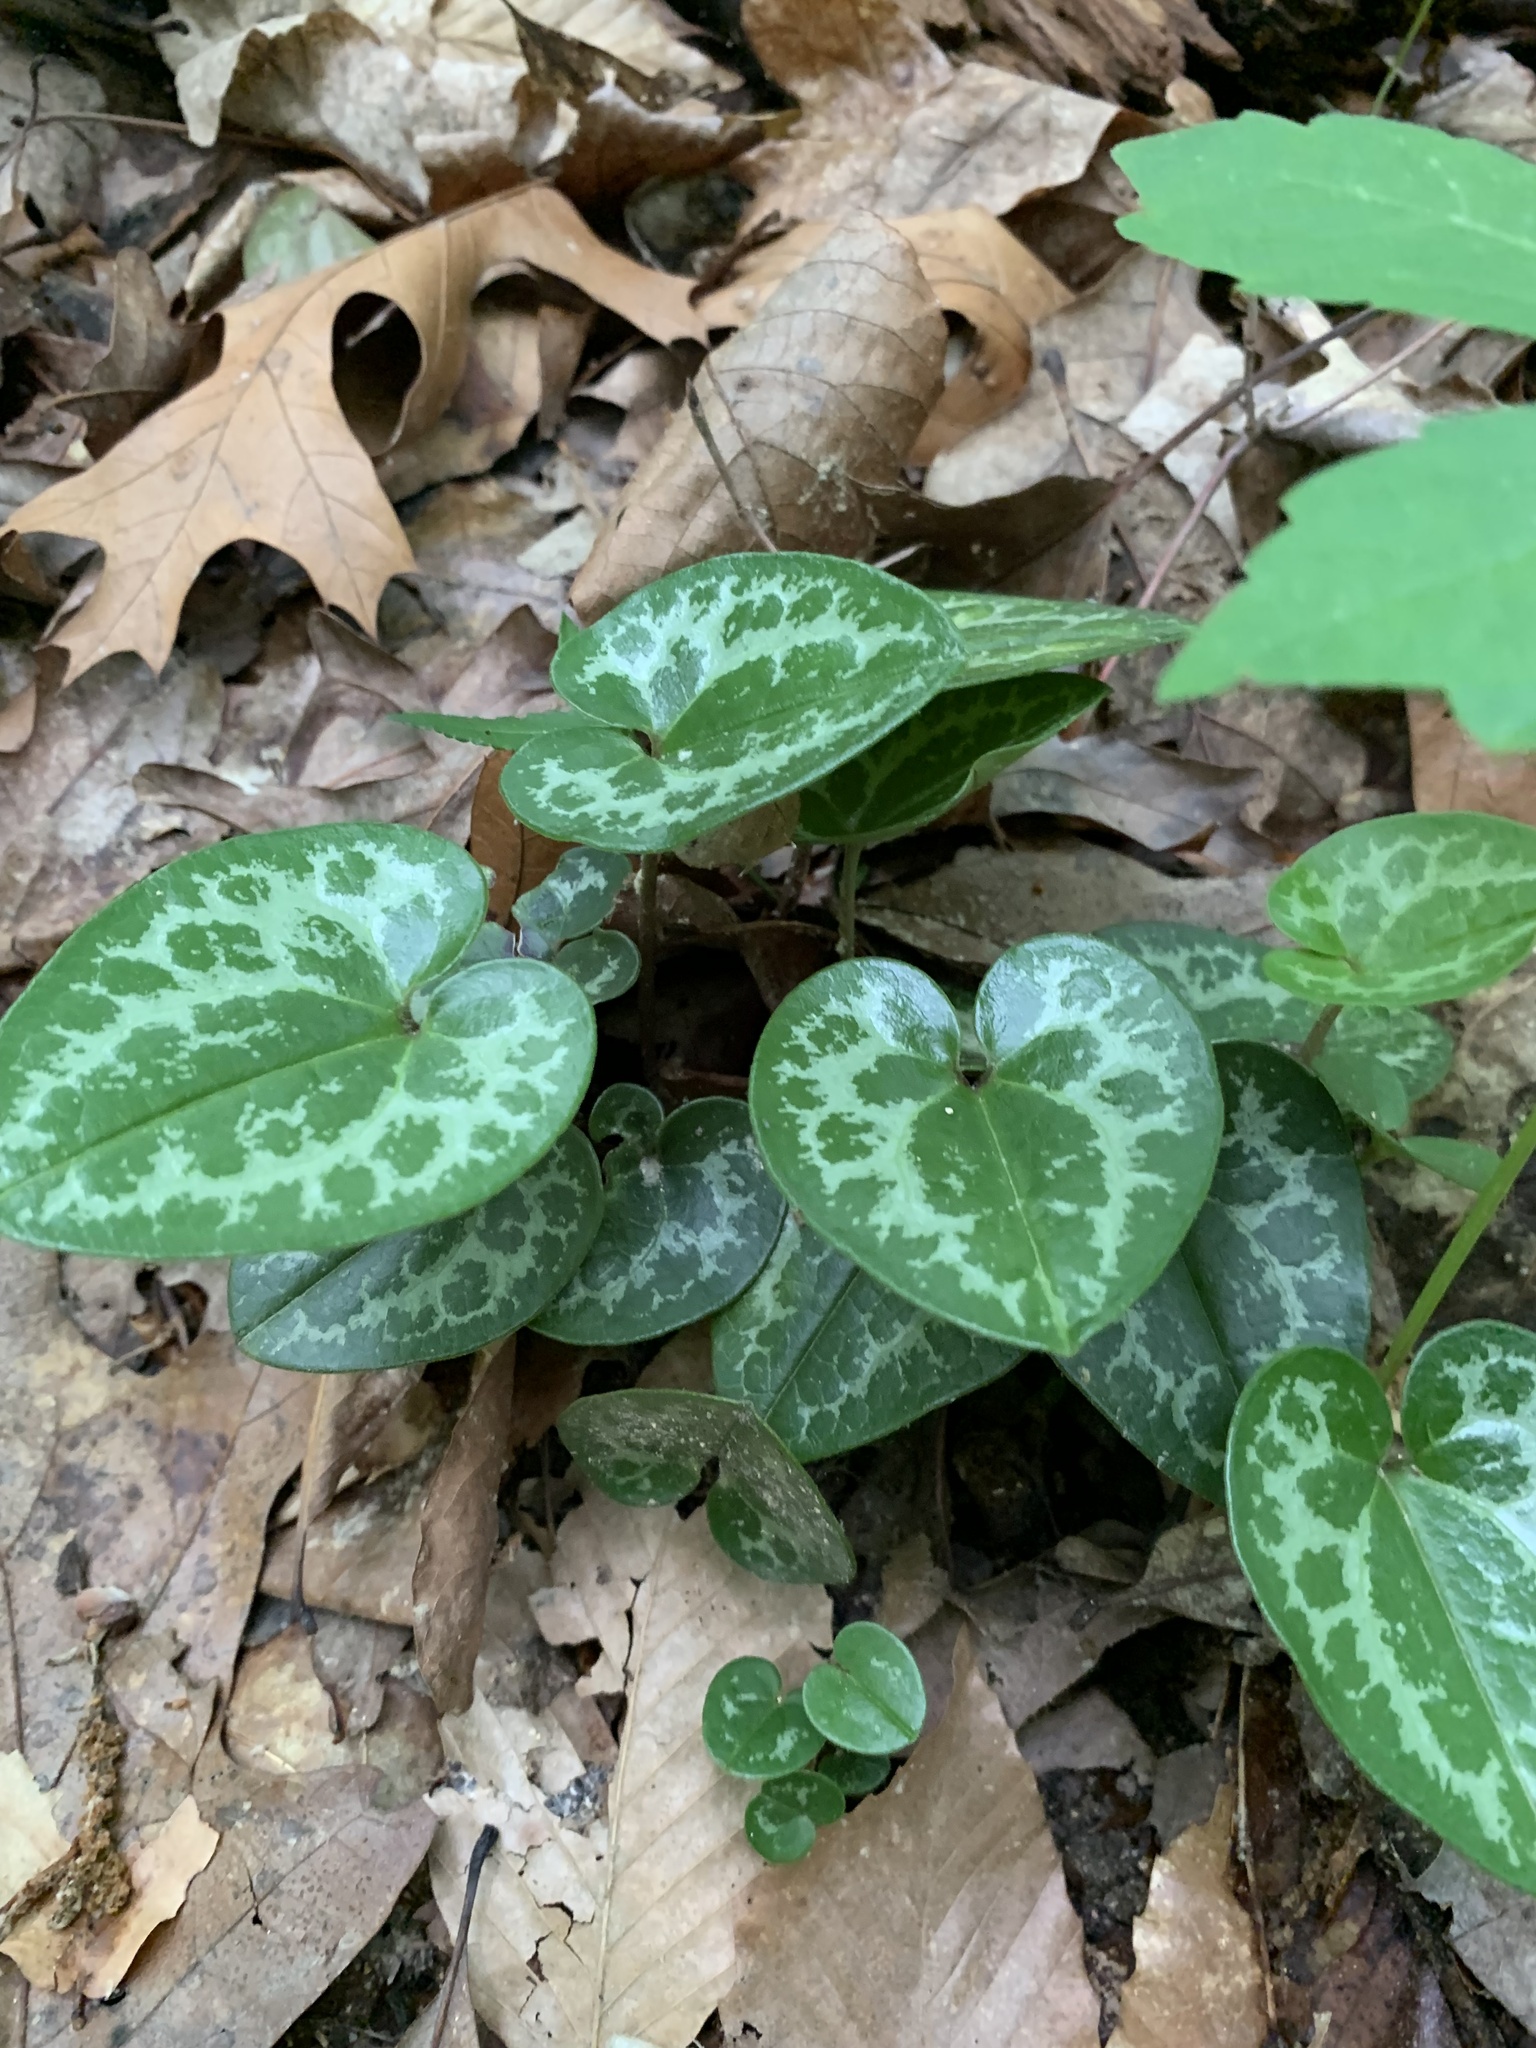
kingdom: Plantae
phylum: Tracheophyta
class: Magnoliopsida
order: Piperales
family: Aristolochiaceae
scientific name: Aristolochiaceae
